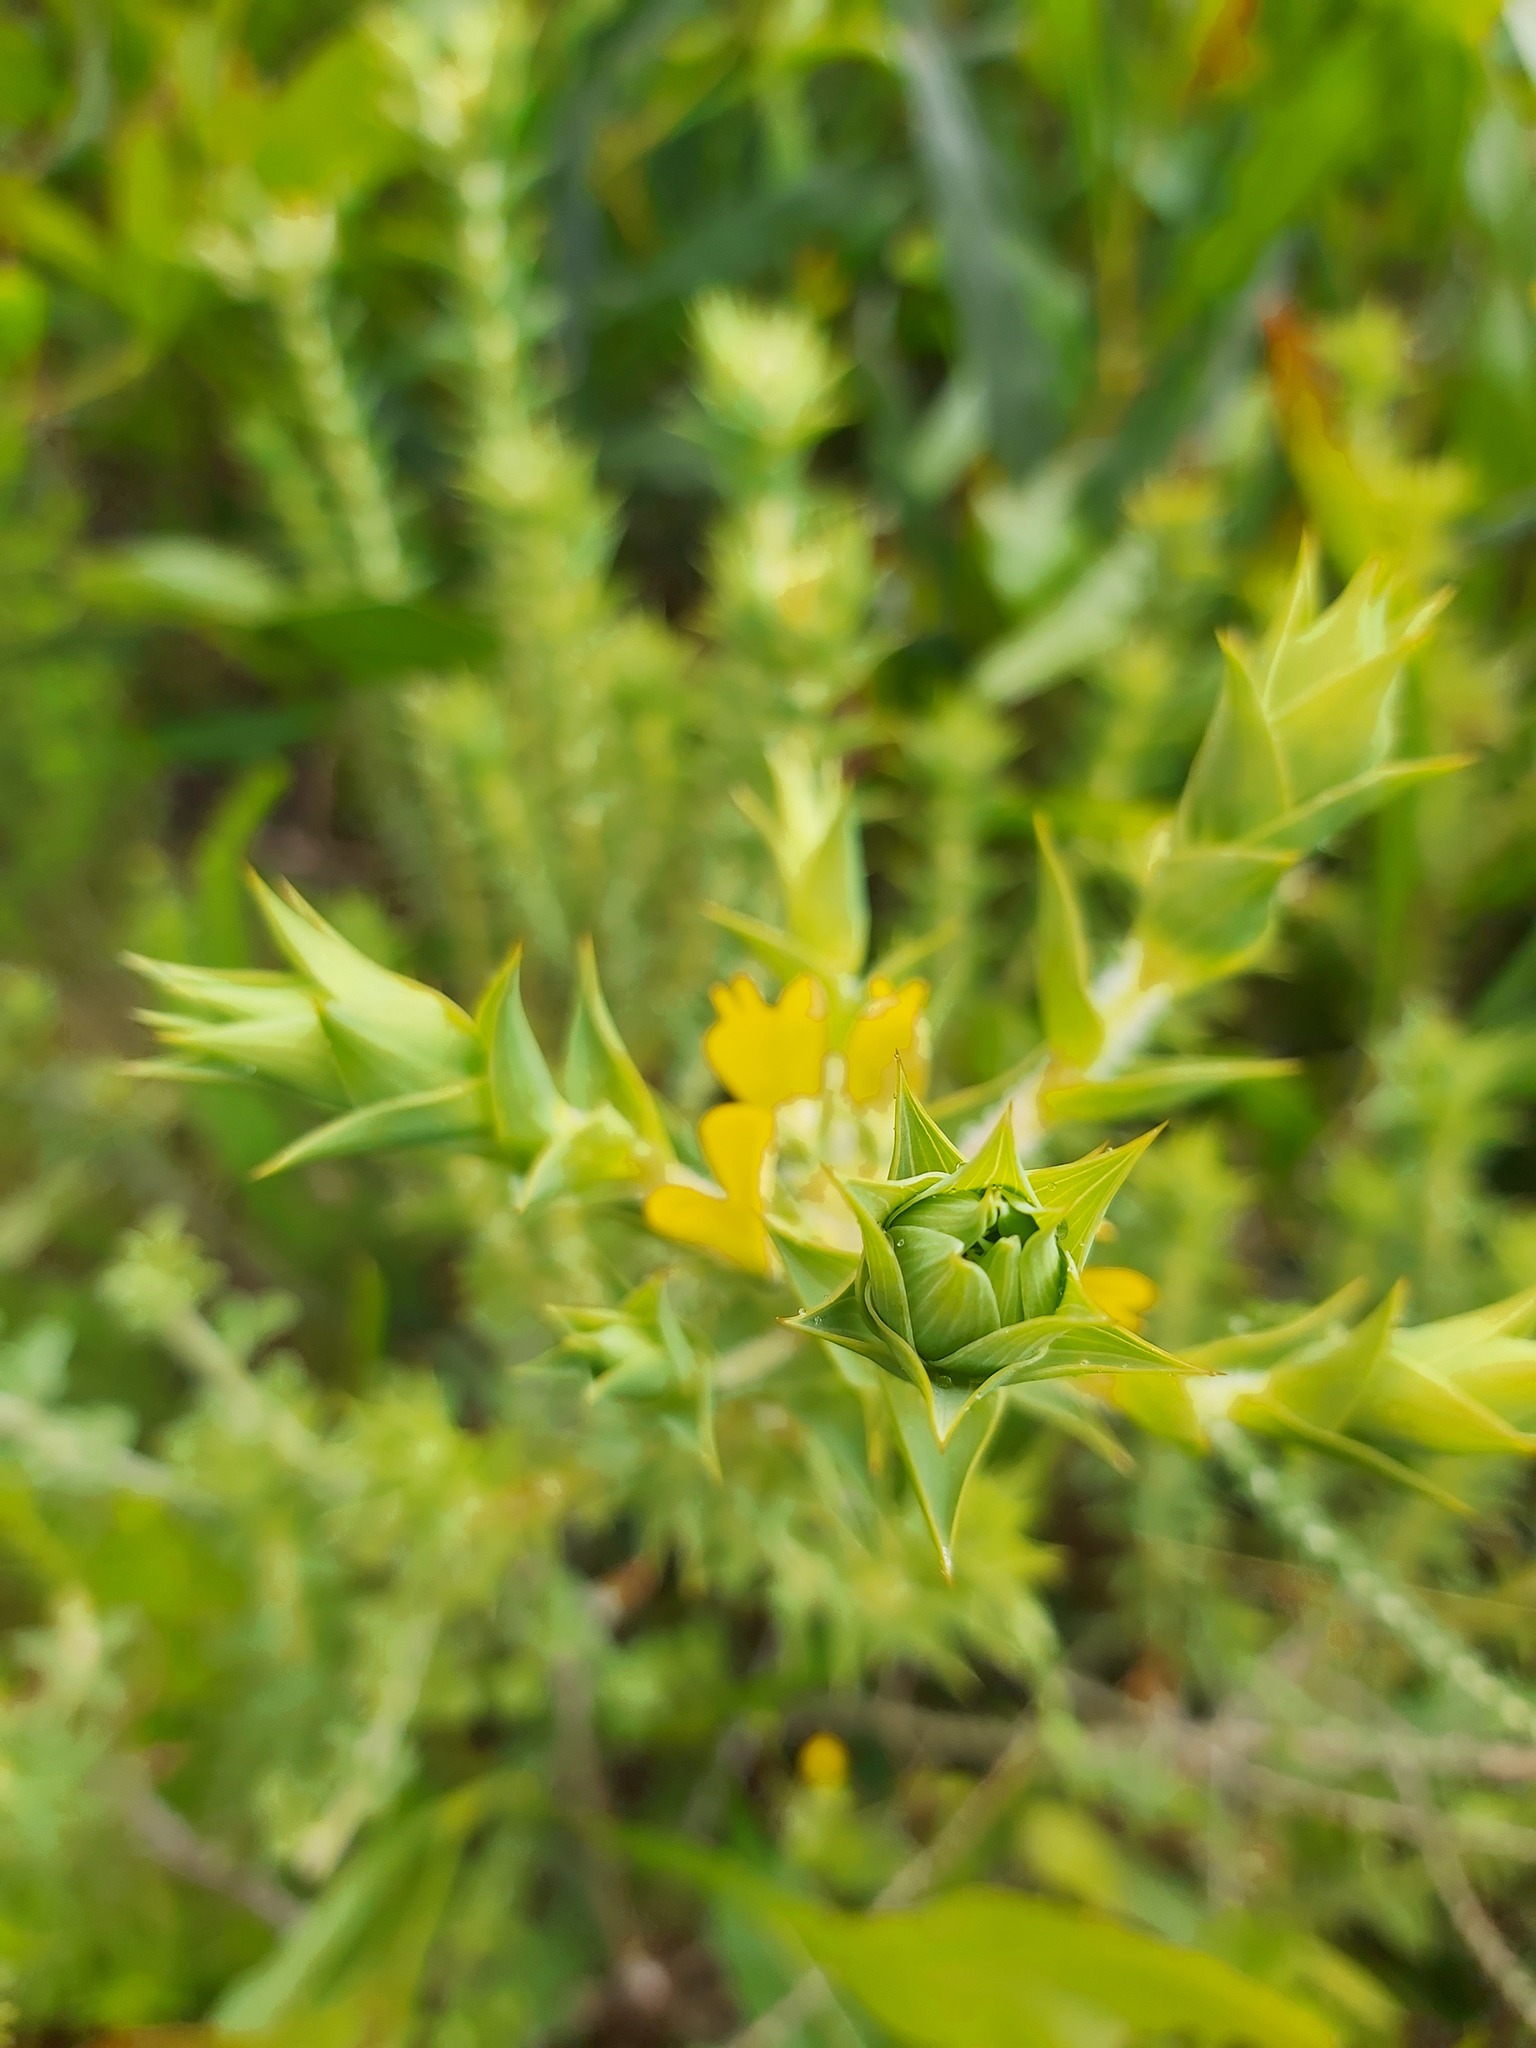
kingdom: Plantae
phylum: Tracheophyta
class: Magnoliopsida
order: Fabales
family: Fabaceae
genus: Aspalathus
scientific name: Aspalathus cordata
